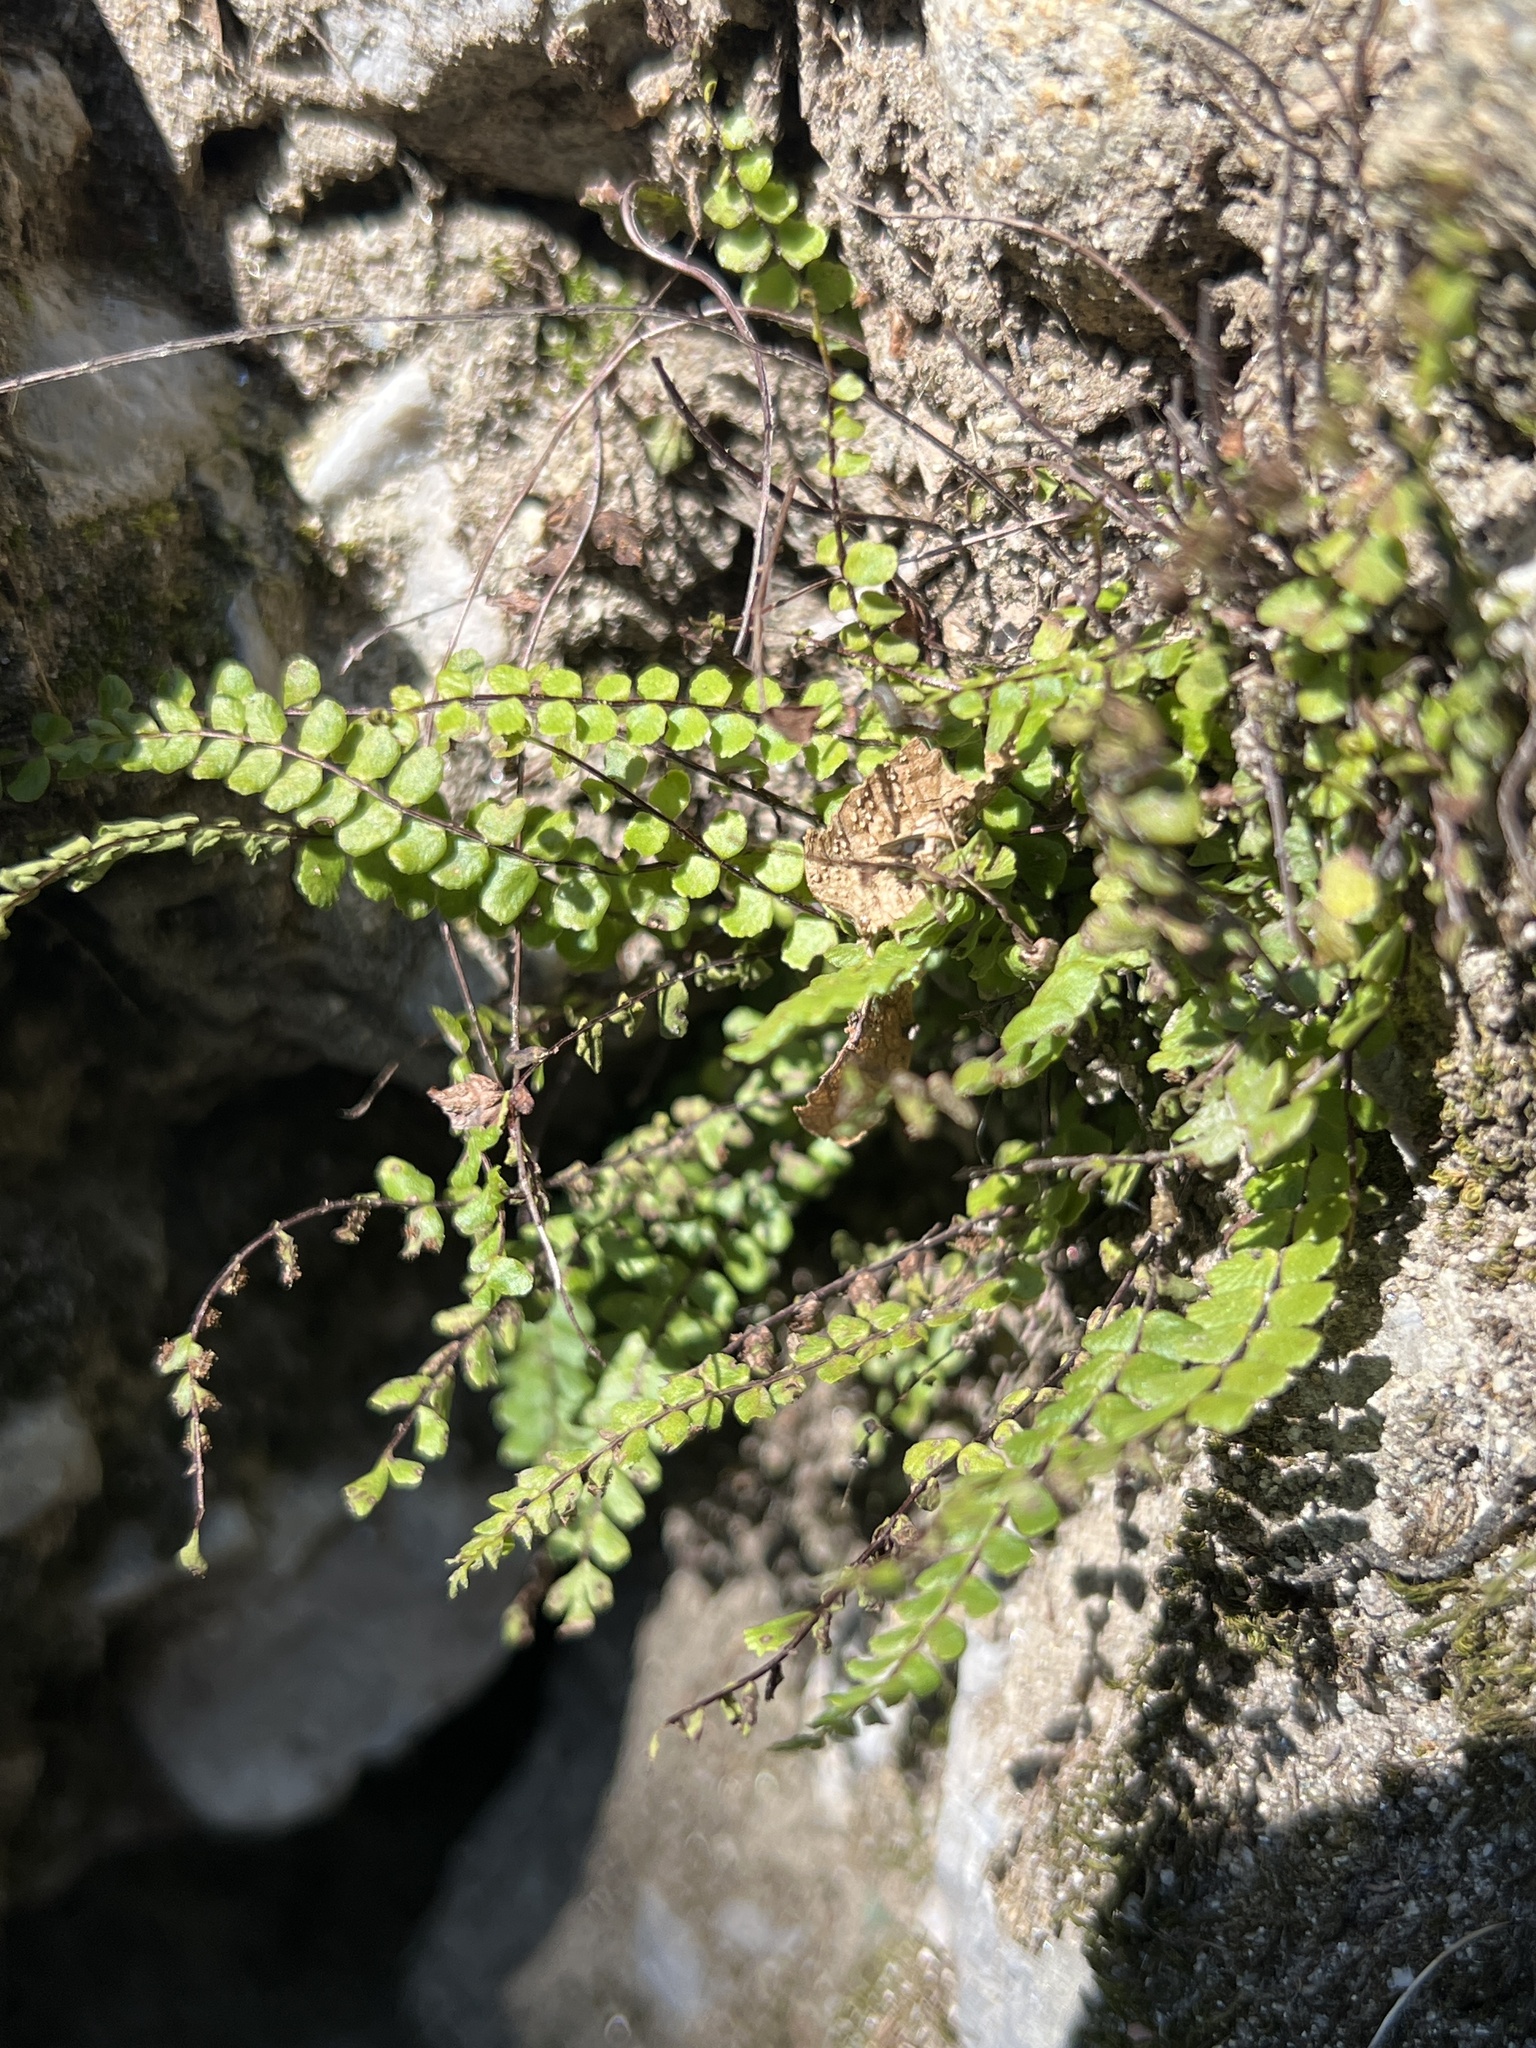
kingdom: Plantae
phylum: Tracheophyta
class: Polypodiopsida
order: Polypodiales
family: Aspleniaceae
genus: Asplenium
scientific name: Asplenium trichomanes
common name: Maidenhair spleenwort
